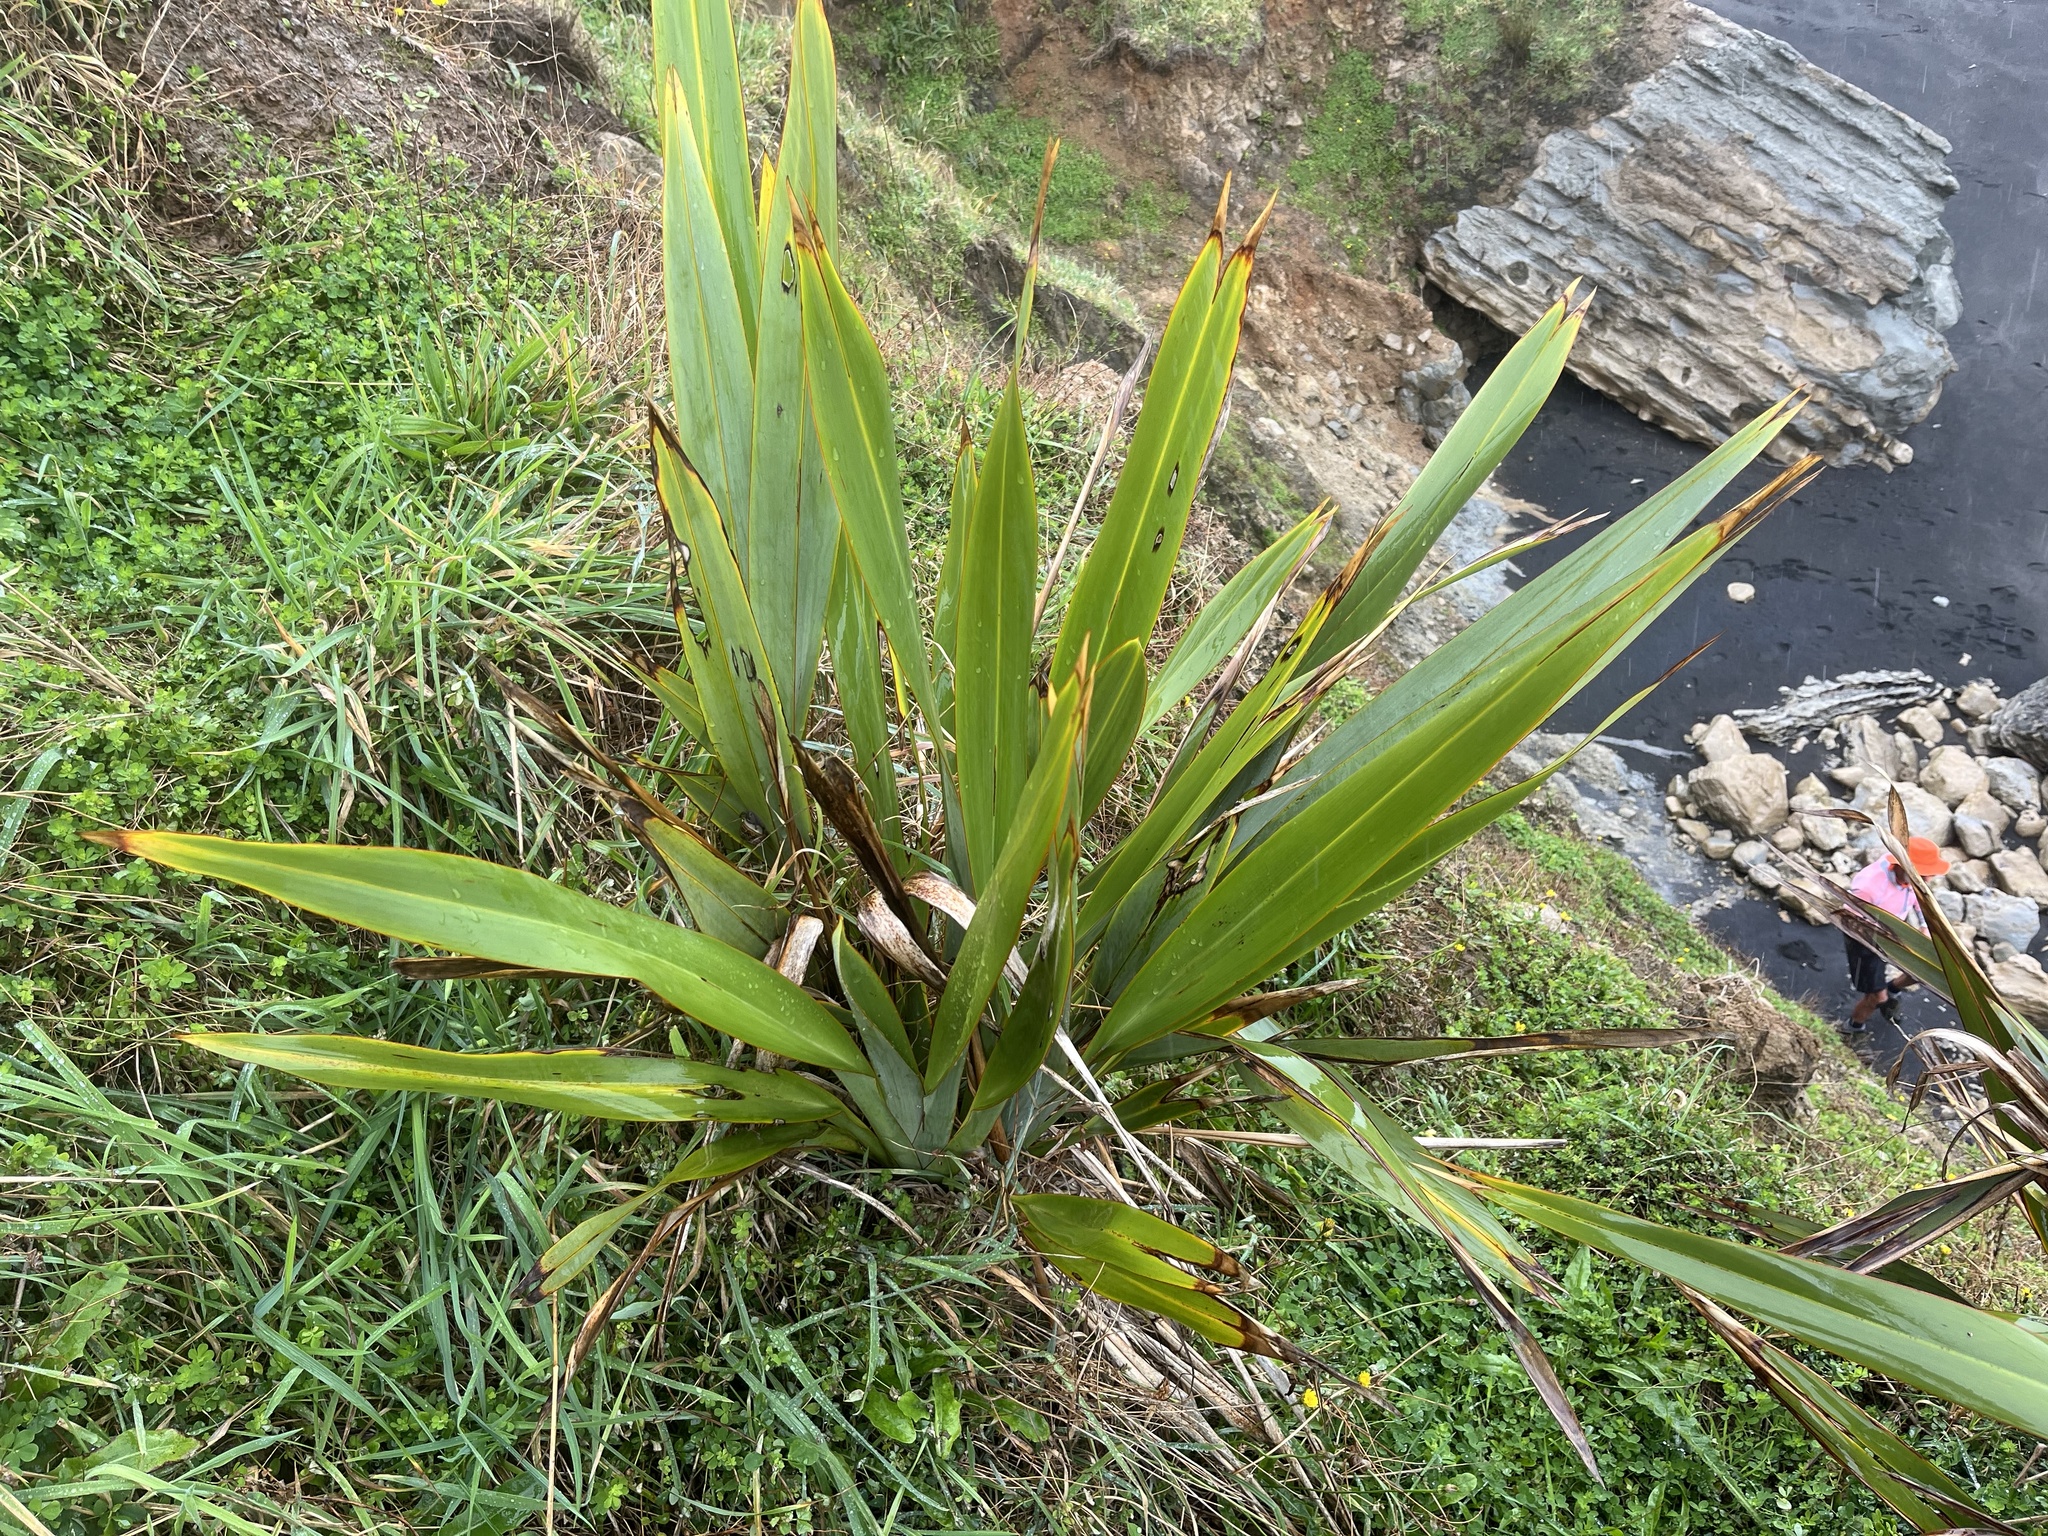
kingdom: Plantae
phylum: Tracheophyta
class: Liliopsida
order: Asparagales
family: Asphodelaceae
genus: Phormium
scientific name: Phormium tenax
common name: New zealand flax
